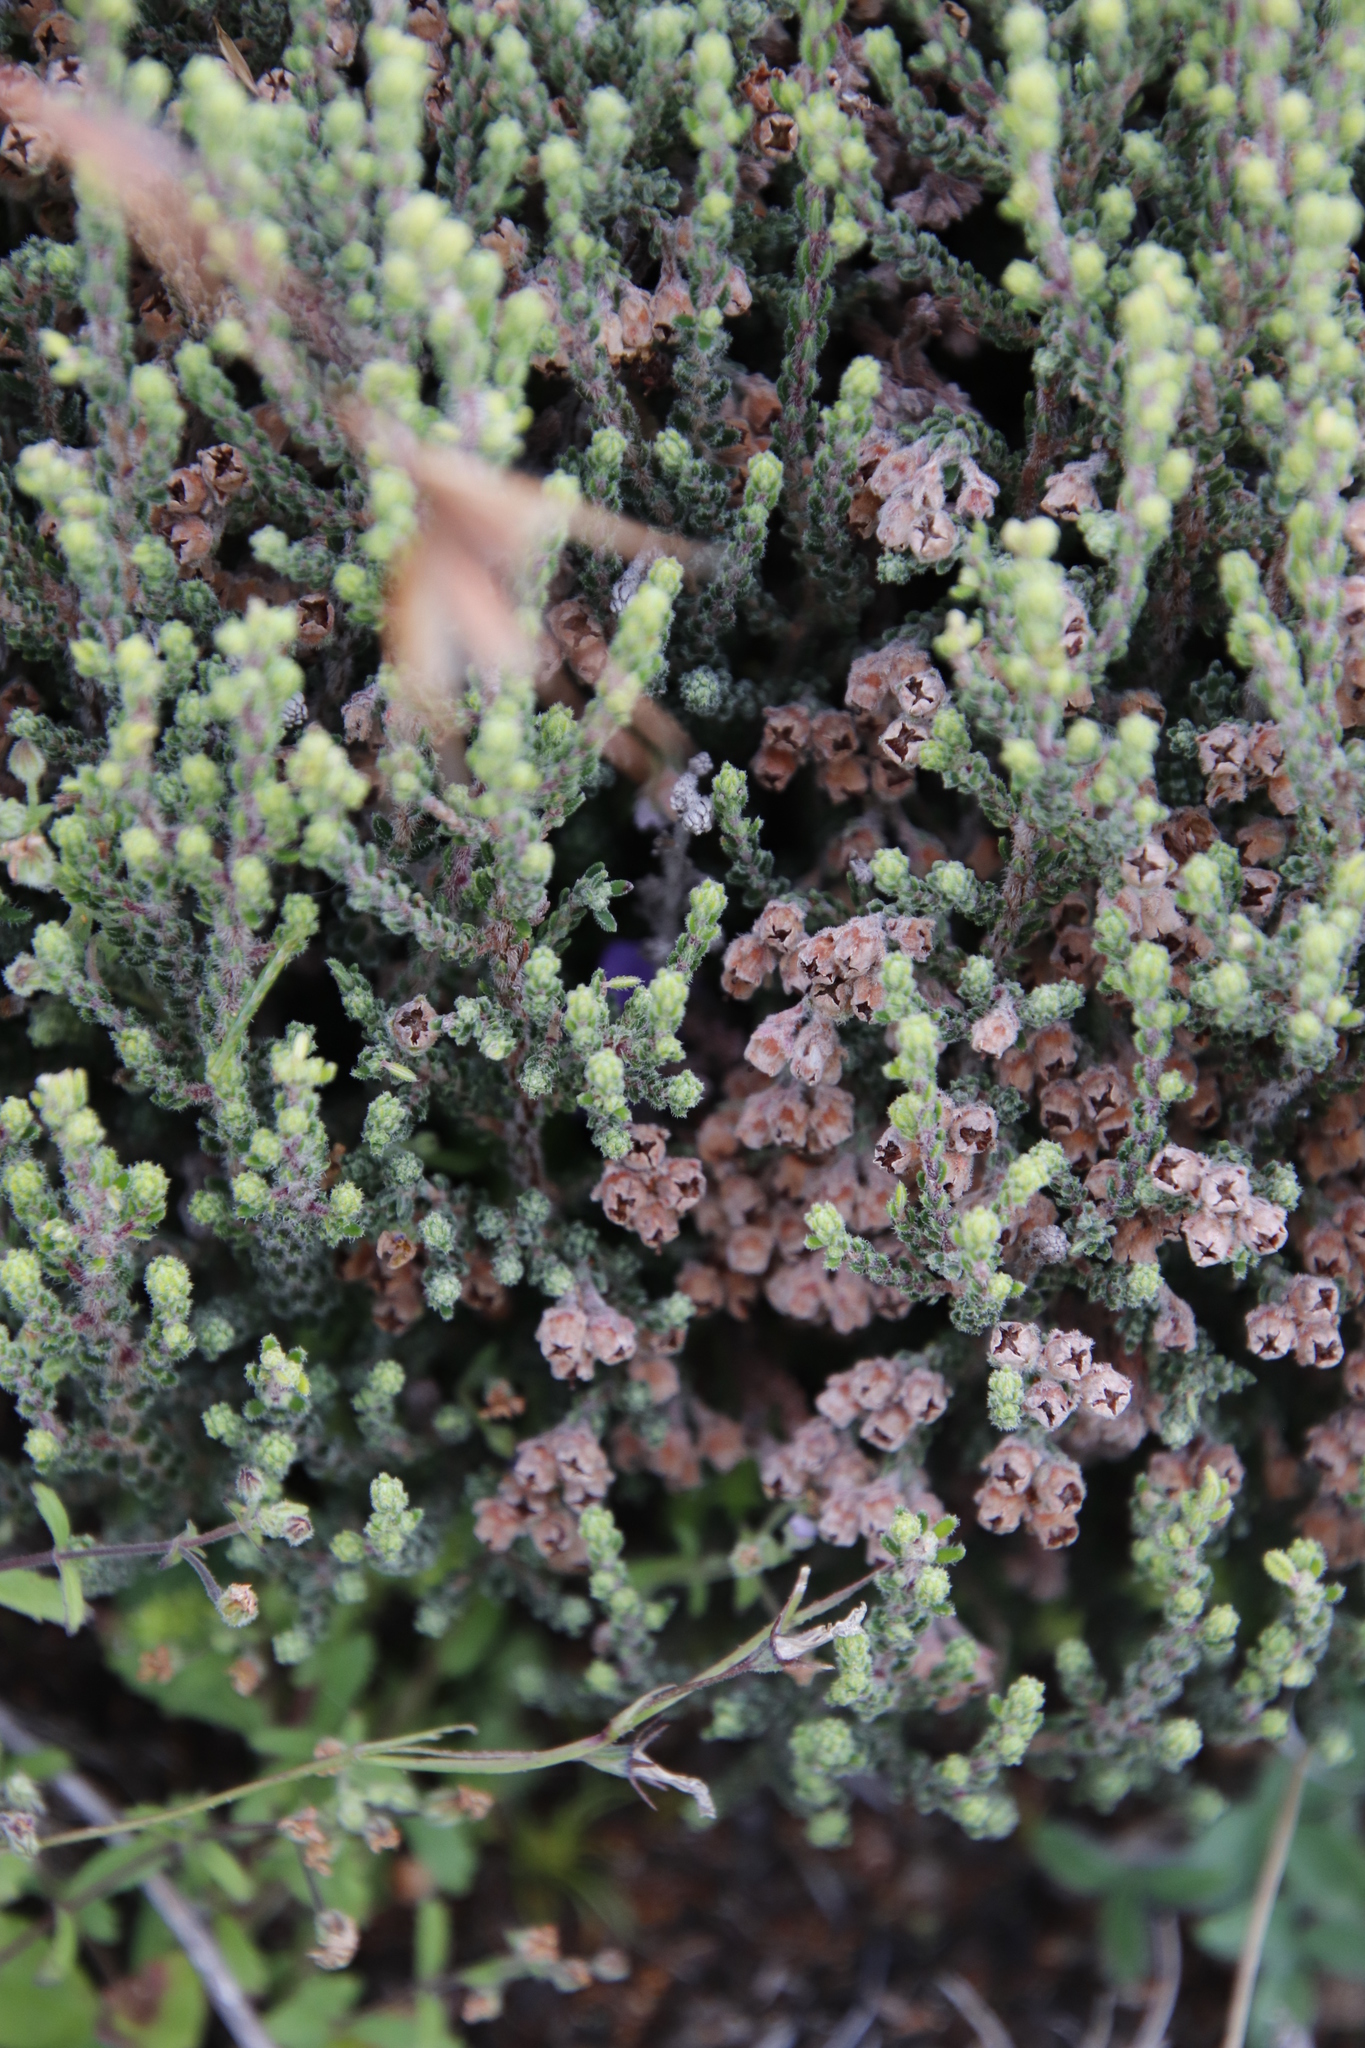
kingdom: Plantae
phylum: Tracheophyta
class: Magnoliopsida
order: Ericales
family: Ericaceae
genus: Erica
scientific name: Erica algida
